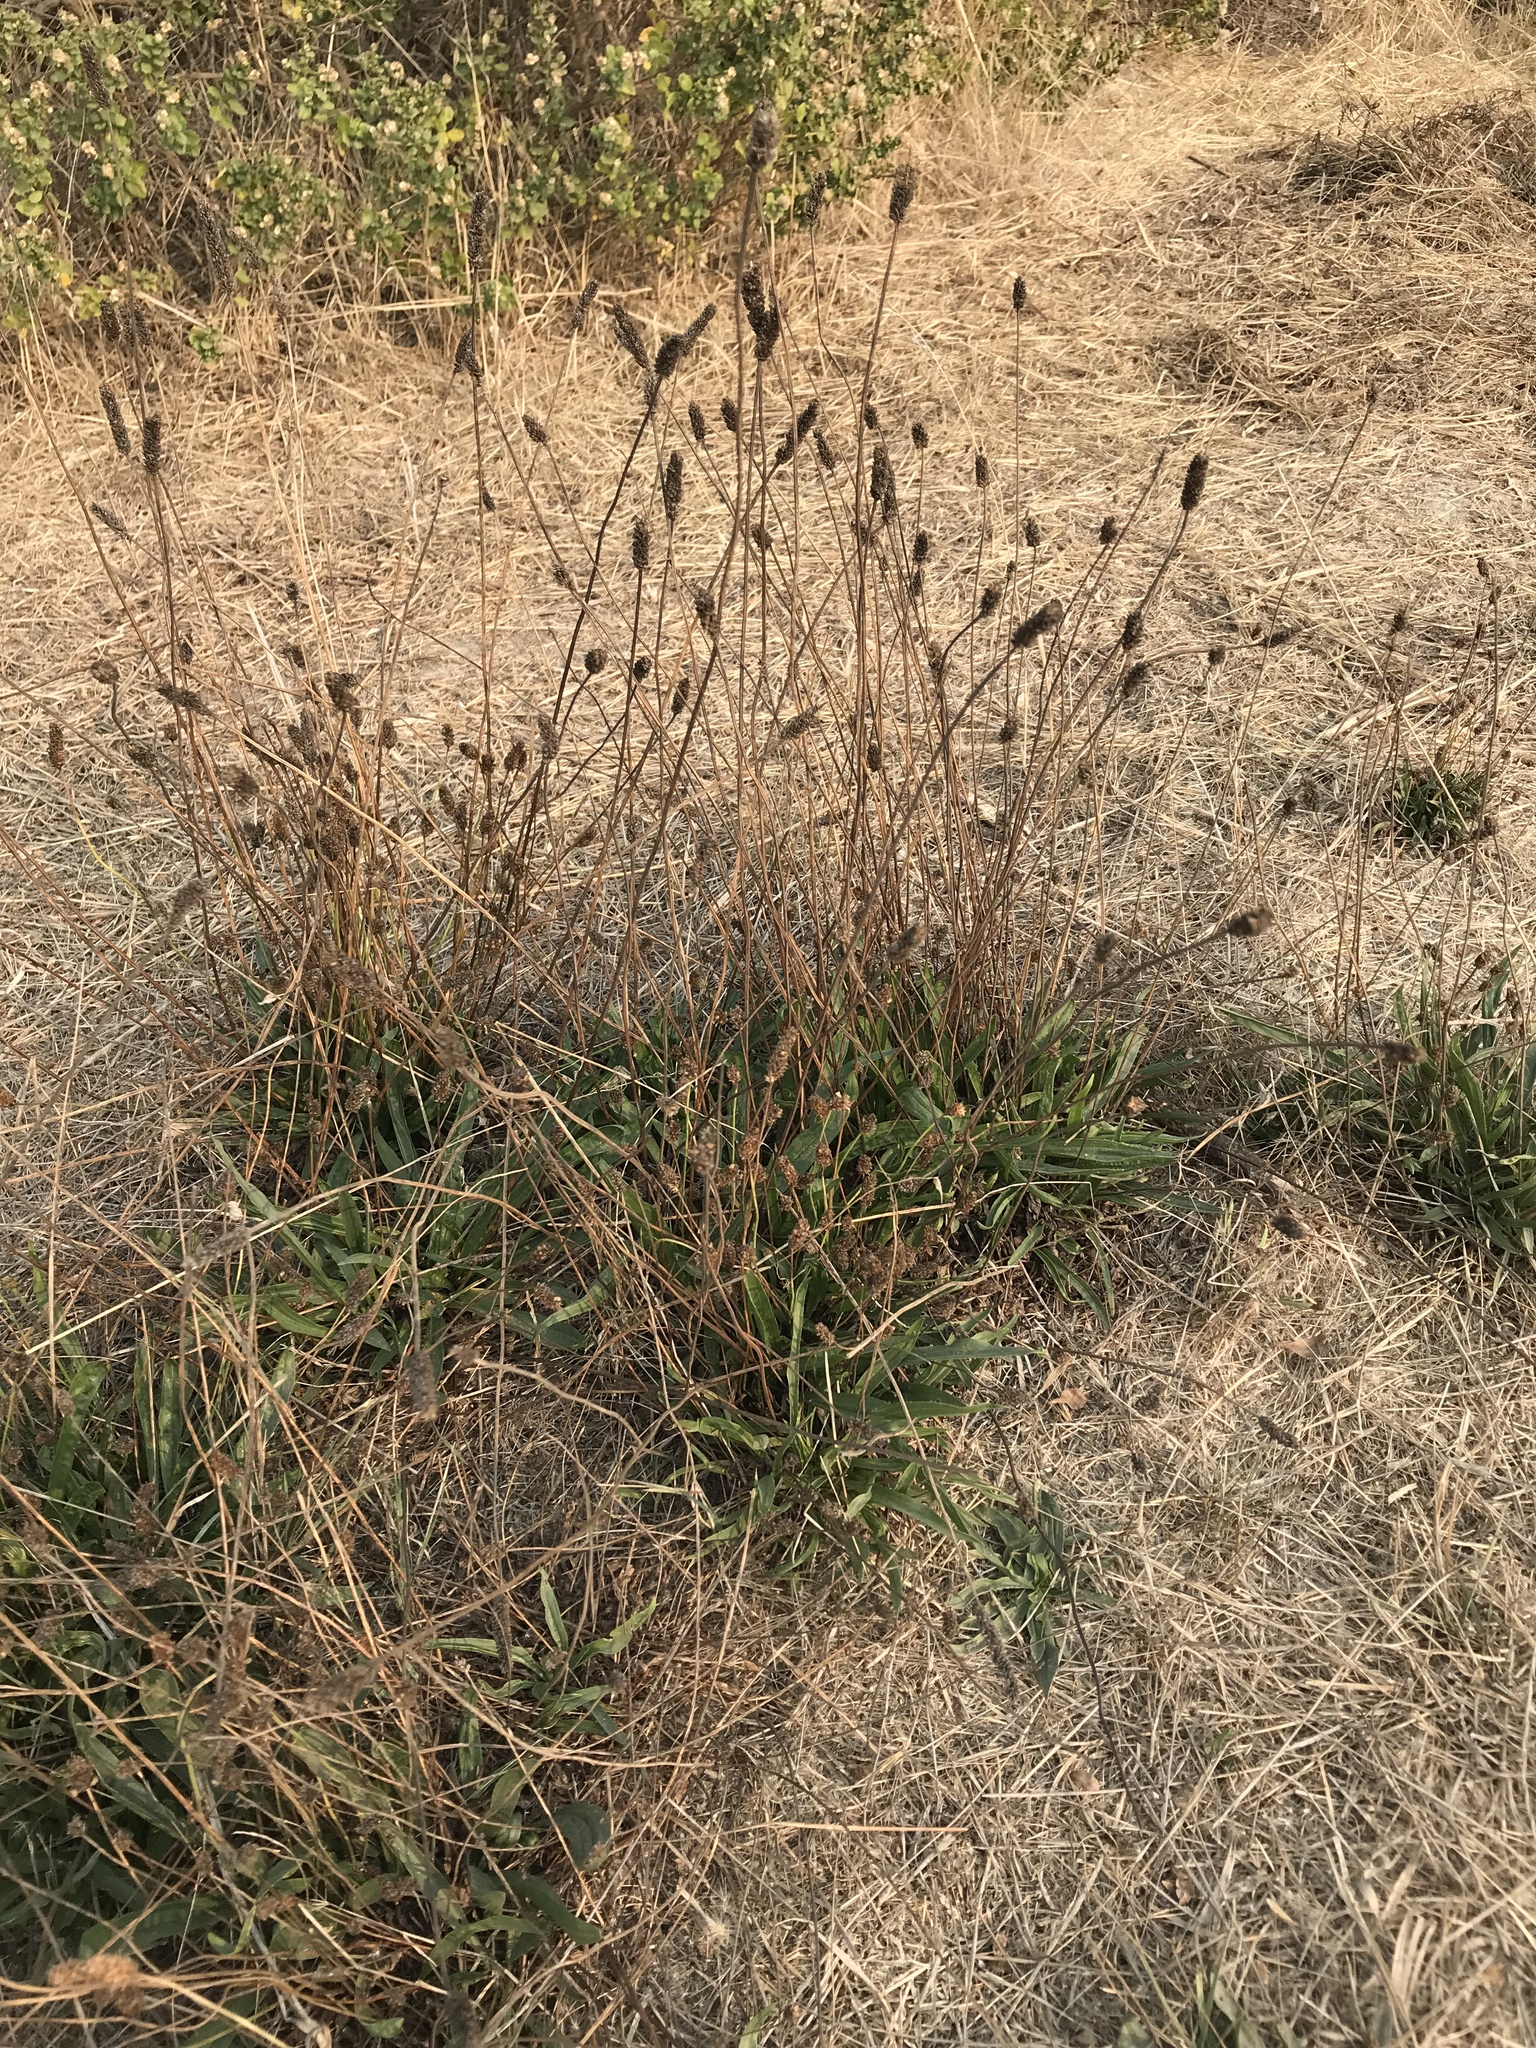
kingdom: Plantae
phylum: Tracheophyta
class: Magnoliopsida
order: Lamiales
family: Plantaginaceae
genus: Plantago
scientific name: Plantago lanceolata
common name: Ribwort plantain
